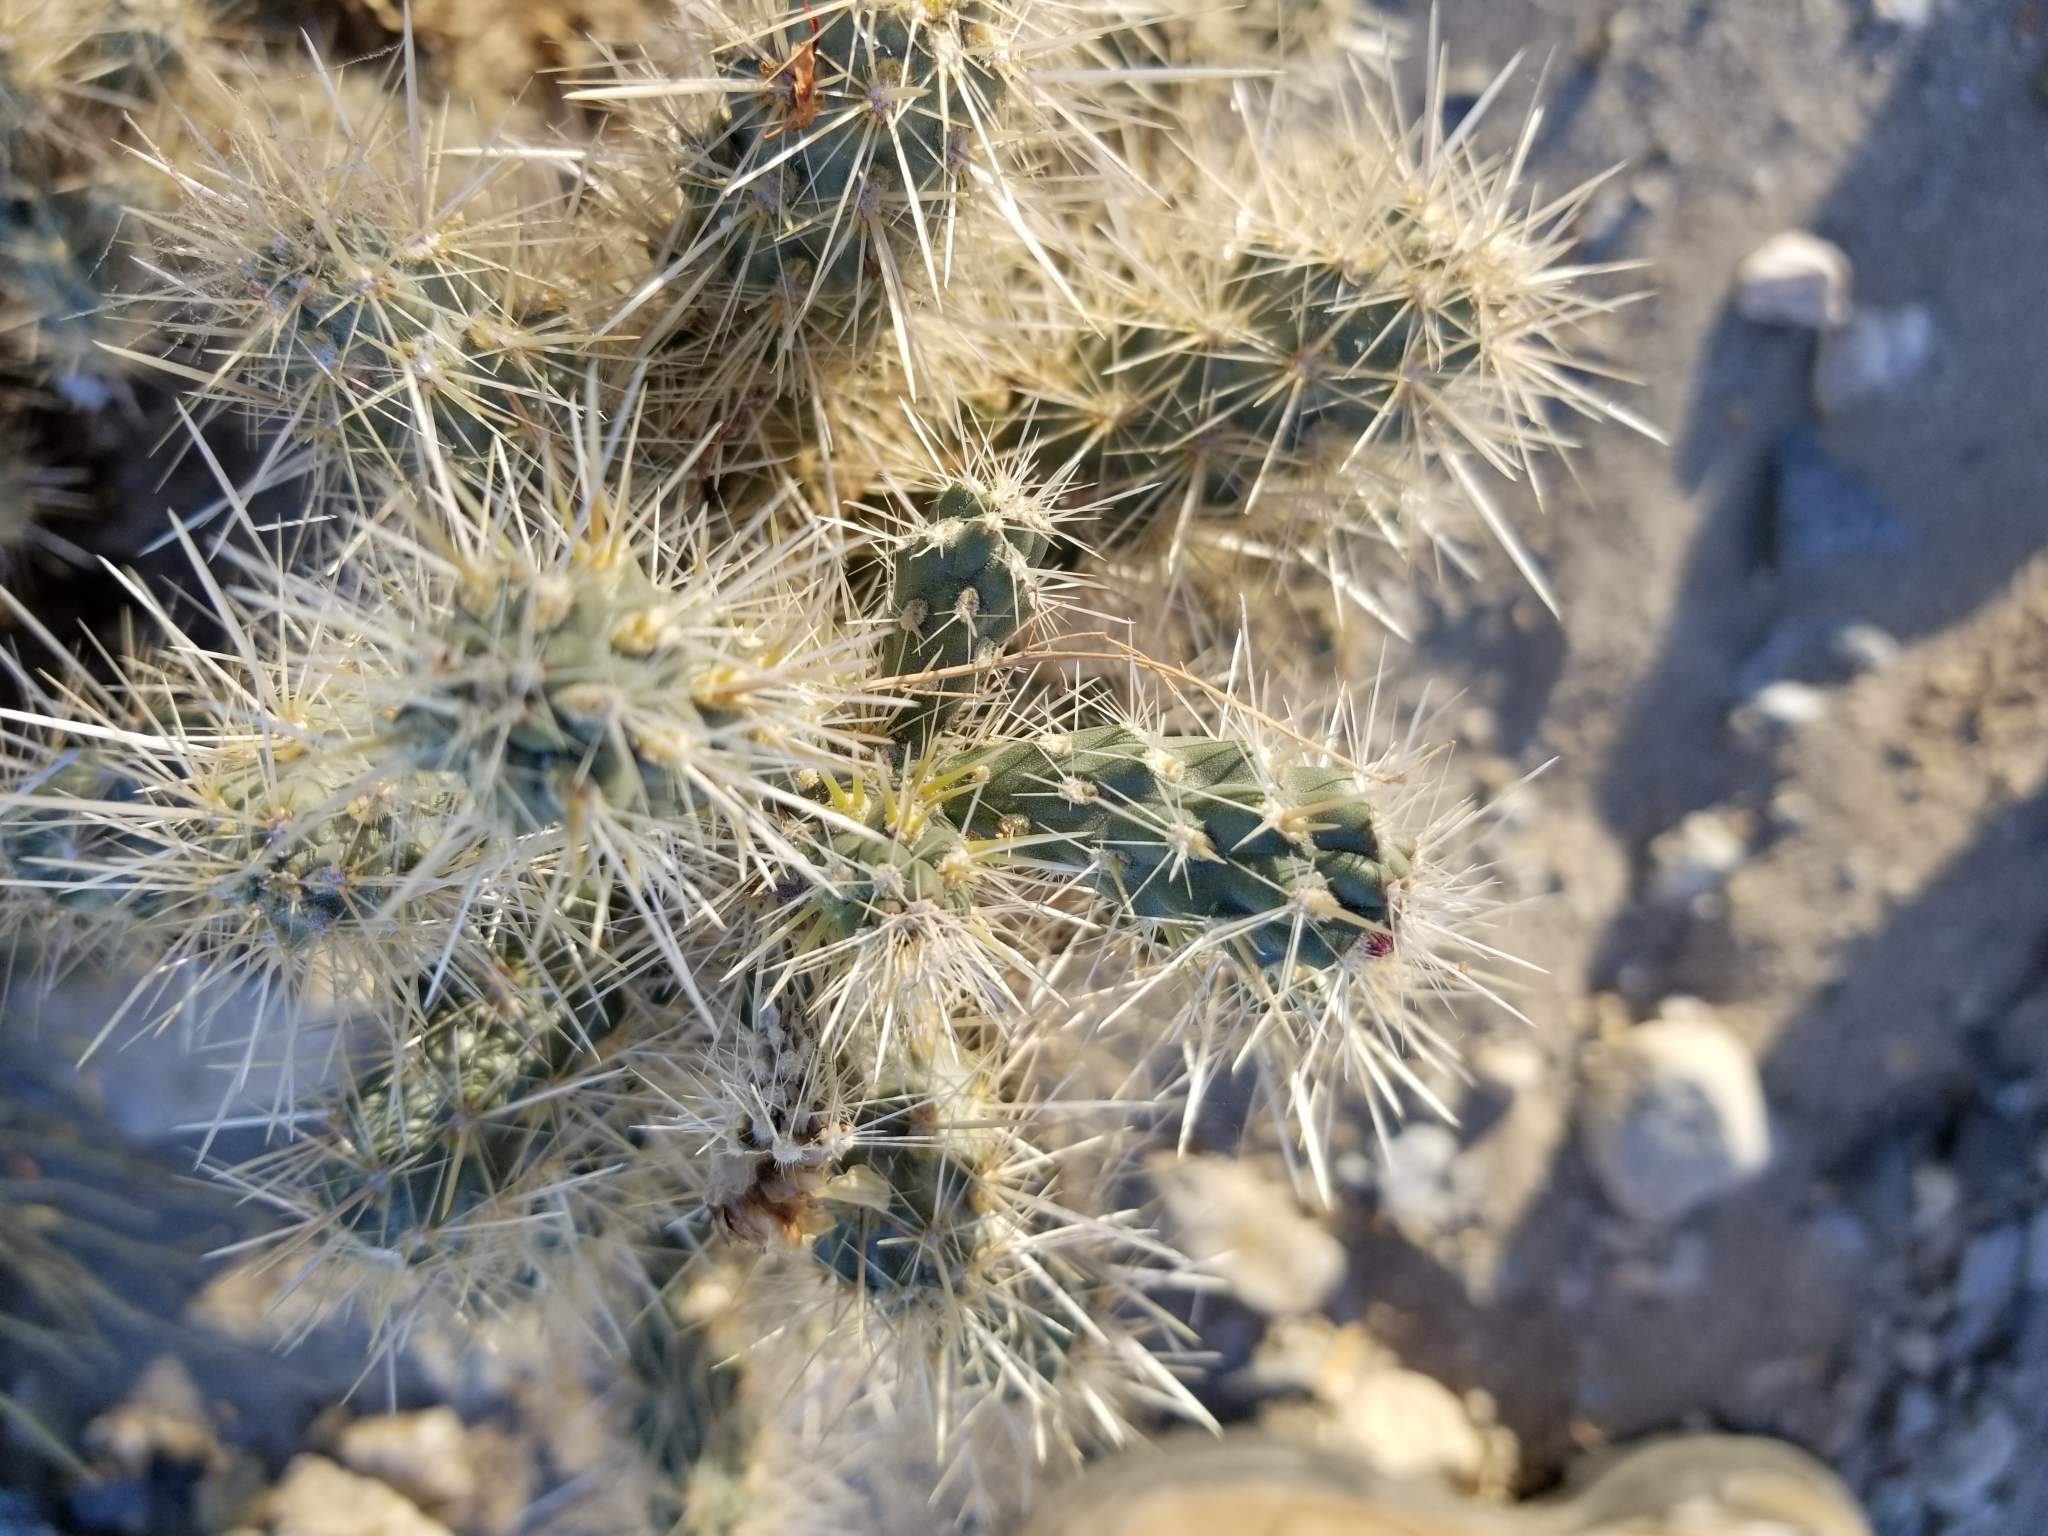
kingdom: Plantae
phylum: Tracheophyta
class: Magnoliopsida
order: Caryophyllales
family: Cactaceae
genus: Cylindropuntia
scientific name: Cylindropuntia chuckwallensis
